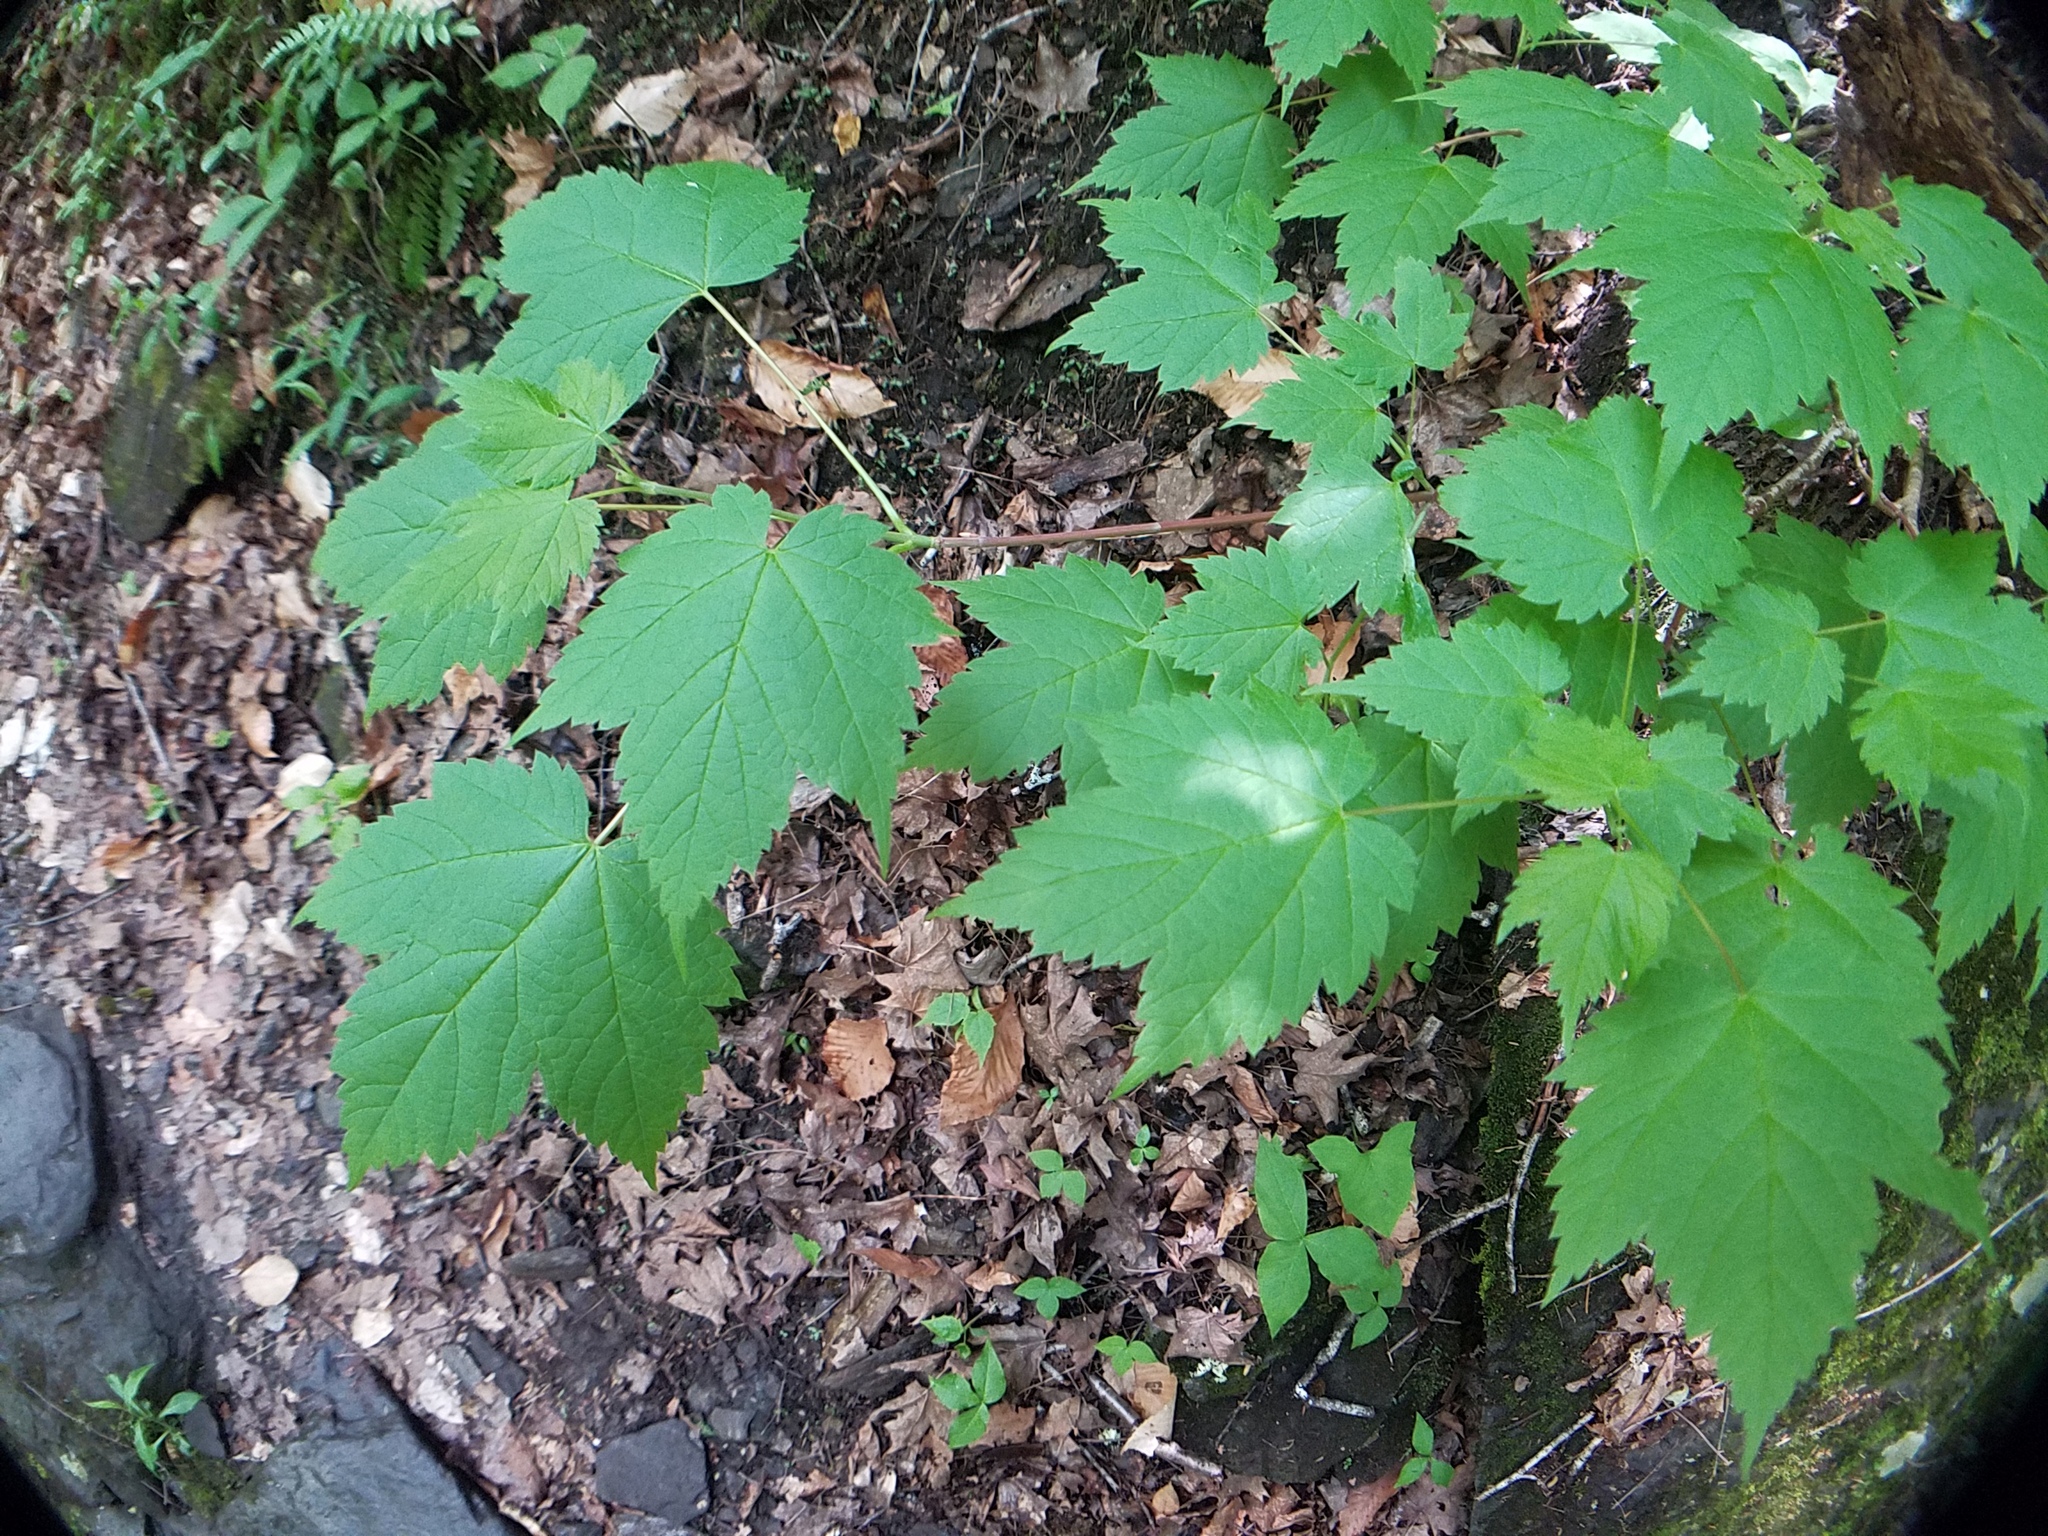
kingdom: Plantae
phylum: Tracheophyta
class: Magnoliopsida
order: Sapindales
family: Sapindaceae
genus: Acer
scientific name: Acer rubrum
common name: Red maple
